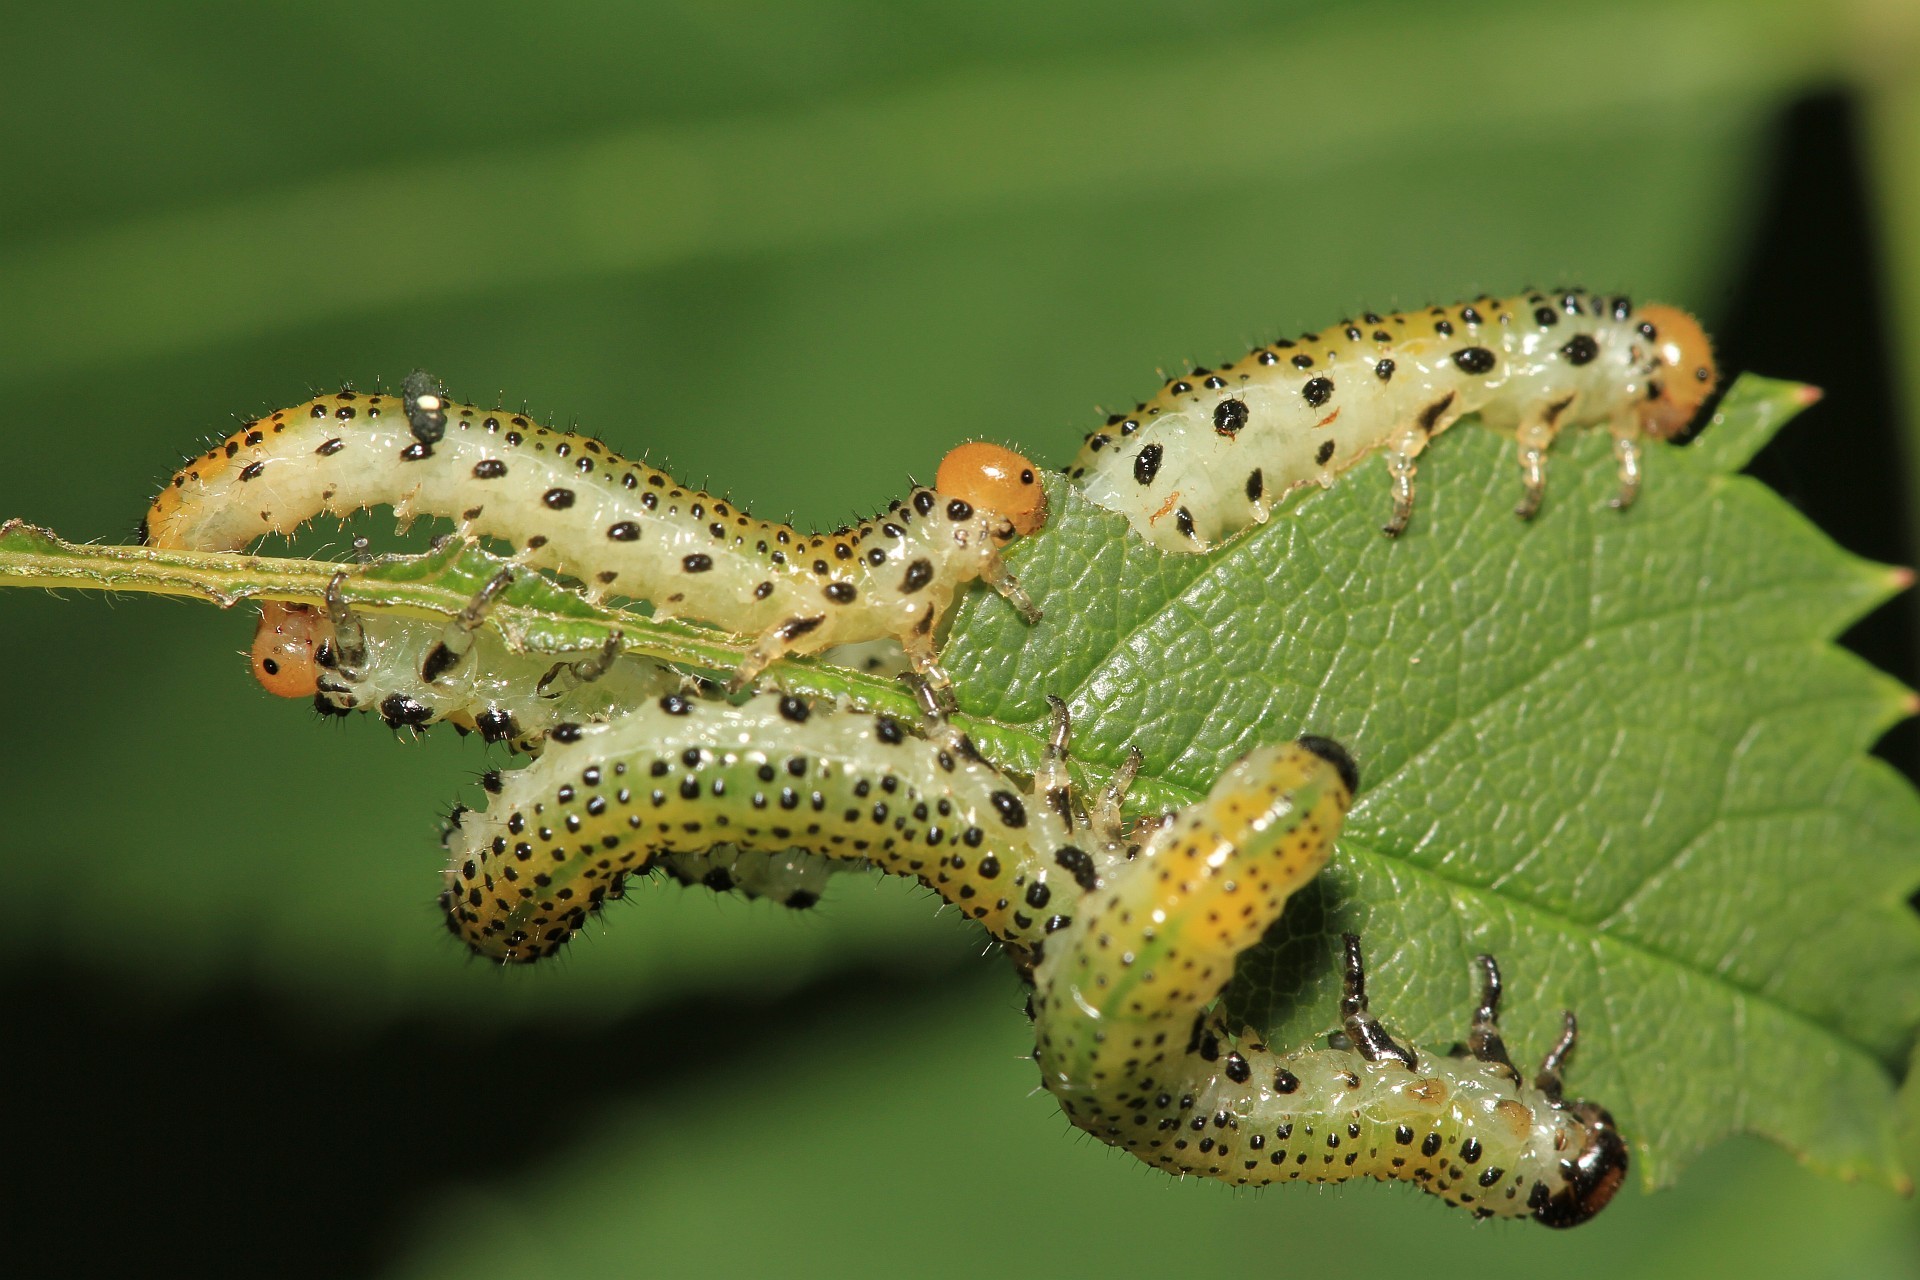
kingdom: Animalia
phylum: Arthropoda
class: Insecta
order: Hymenoptera
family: Argidae
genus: Arge
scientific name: Arge pagana
